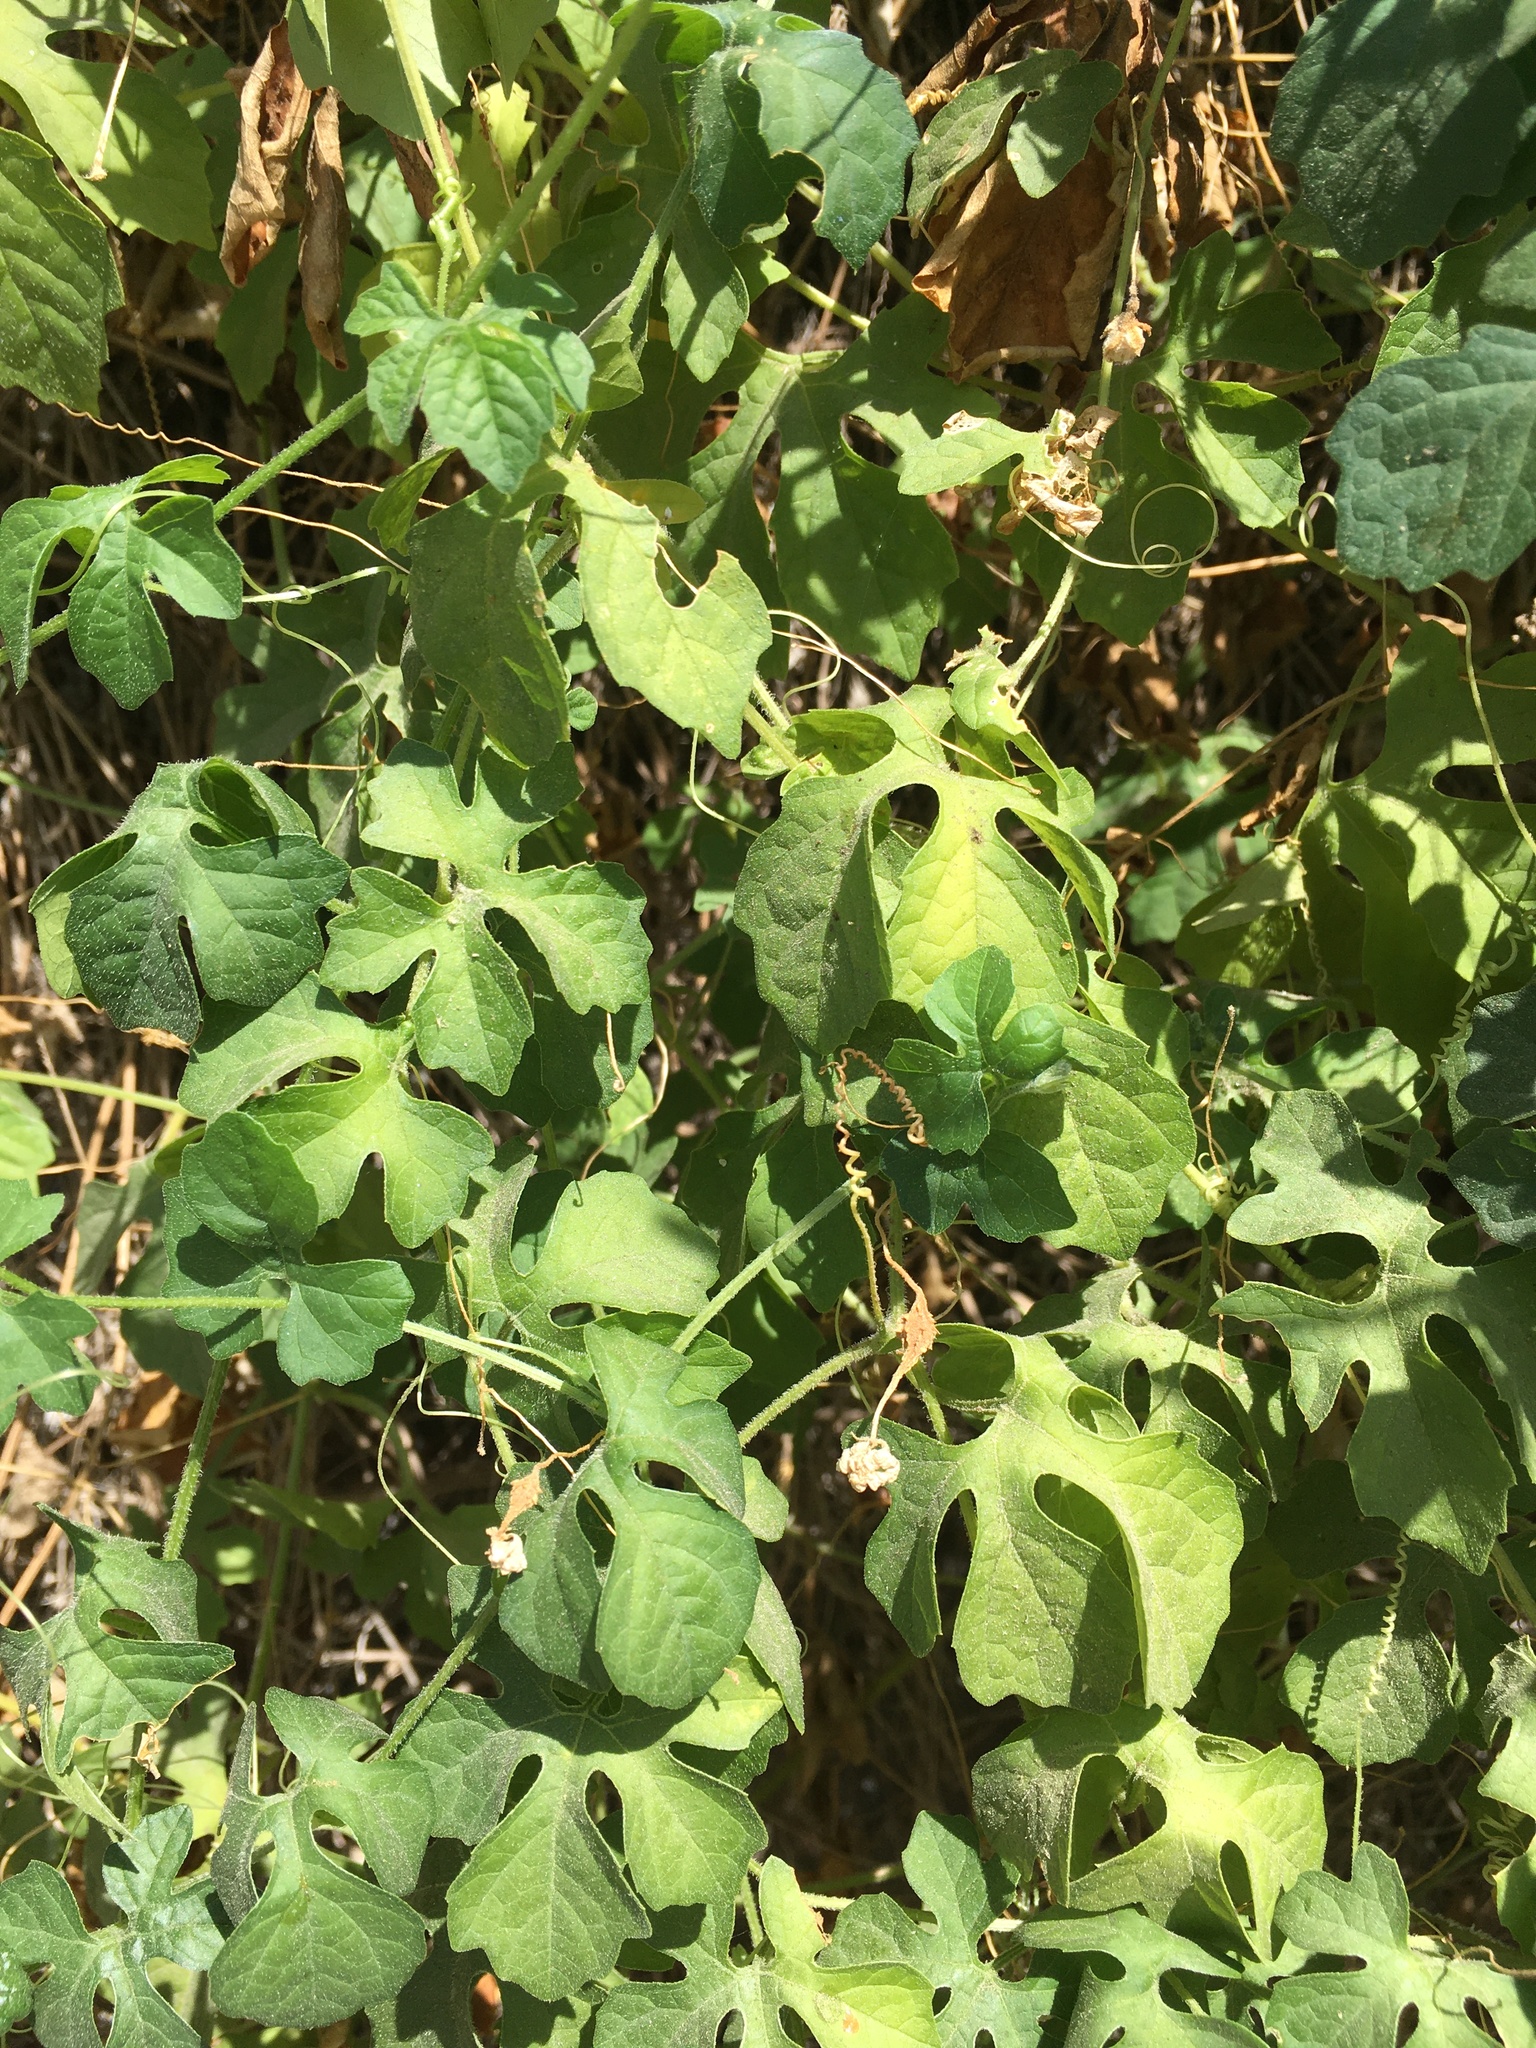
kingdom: Plantae
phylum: Tracheophyta
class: Magnoliopsida
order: Cucurbitales
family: Cucurbitaceae
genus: Momordica
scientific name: Momordica charantia
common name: Balsampear
